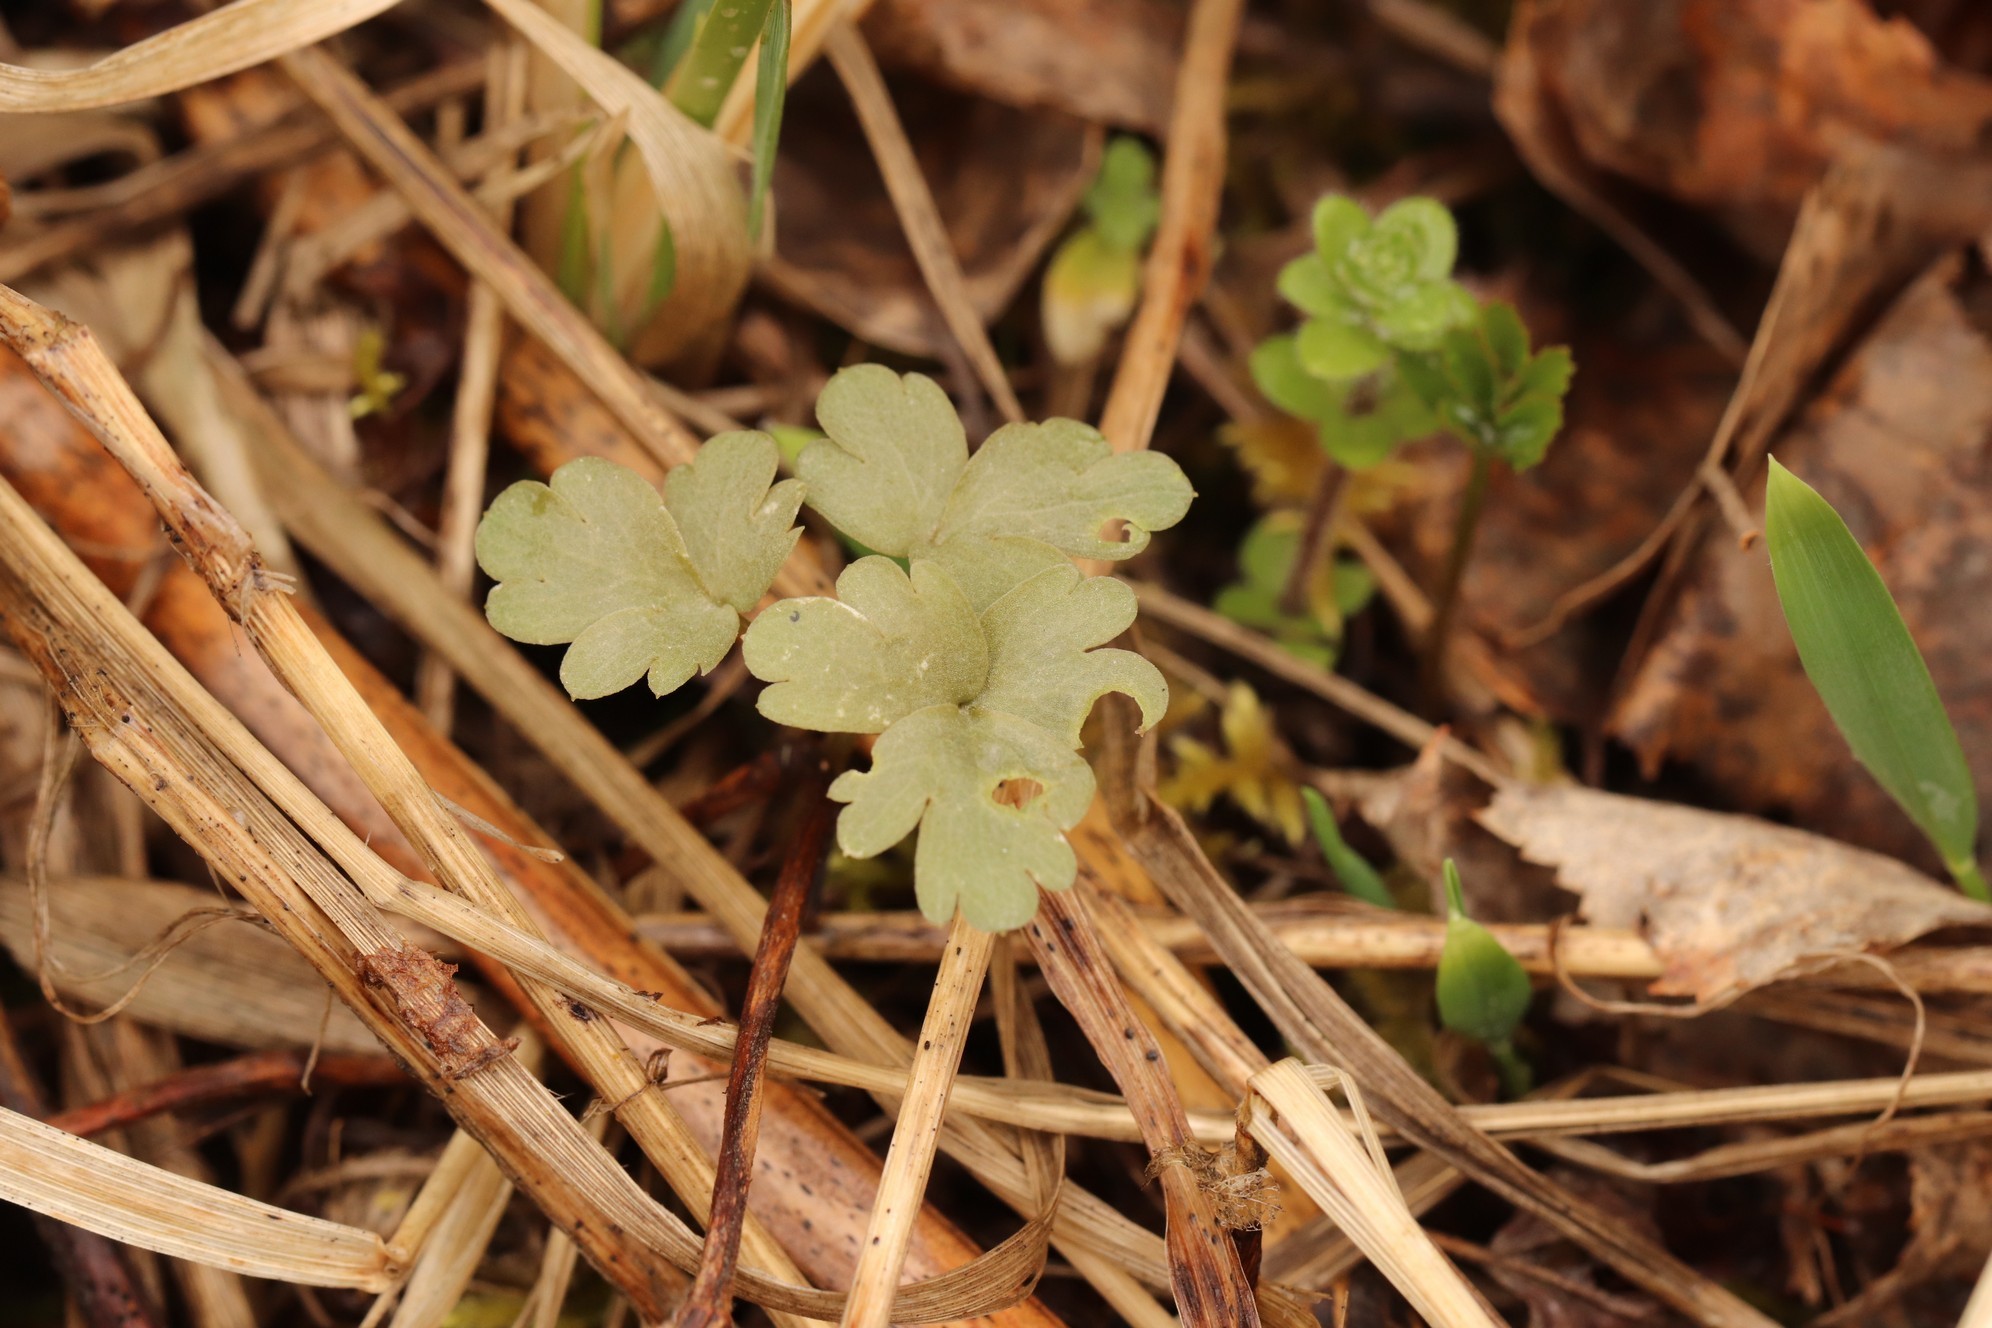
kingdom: Plantae
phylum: Tracheophyta
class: Magnoliopsida
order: Dipsacales
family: Viburnaceae
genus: Adoxa
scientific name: Adoxa moschatellina
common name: Moschatel
